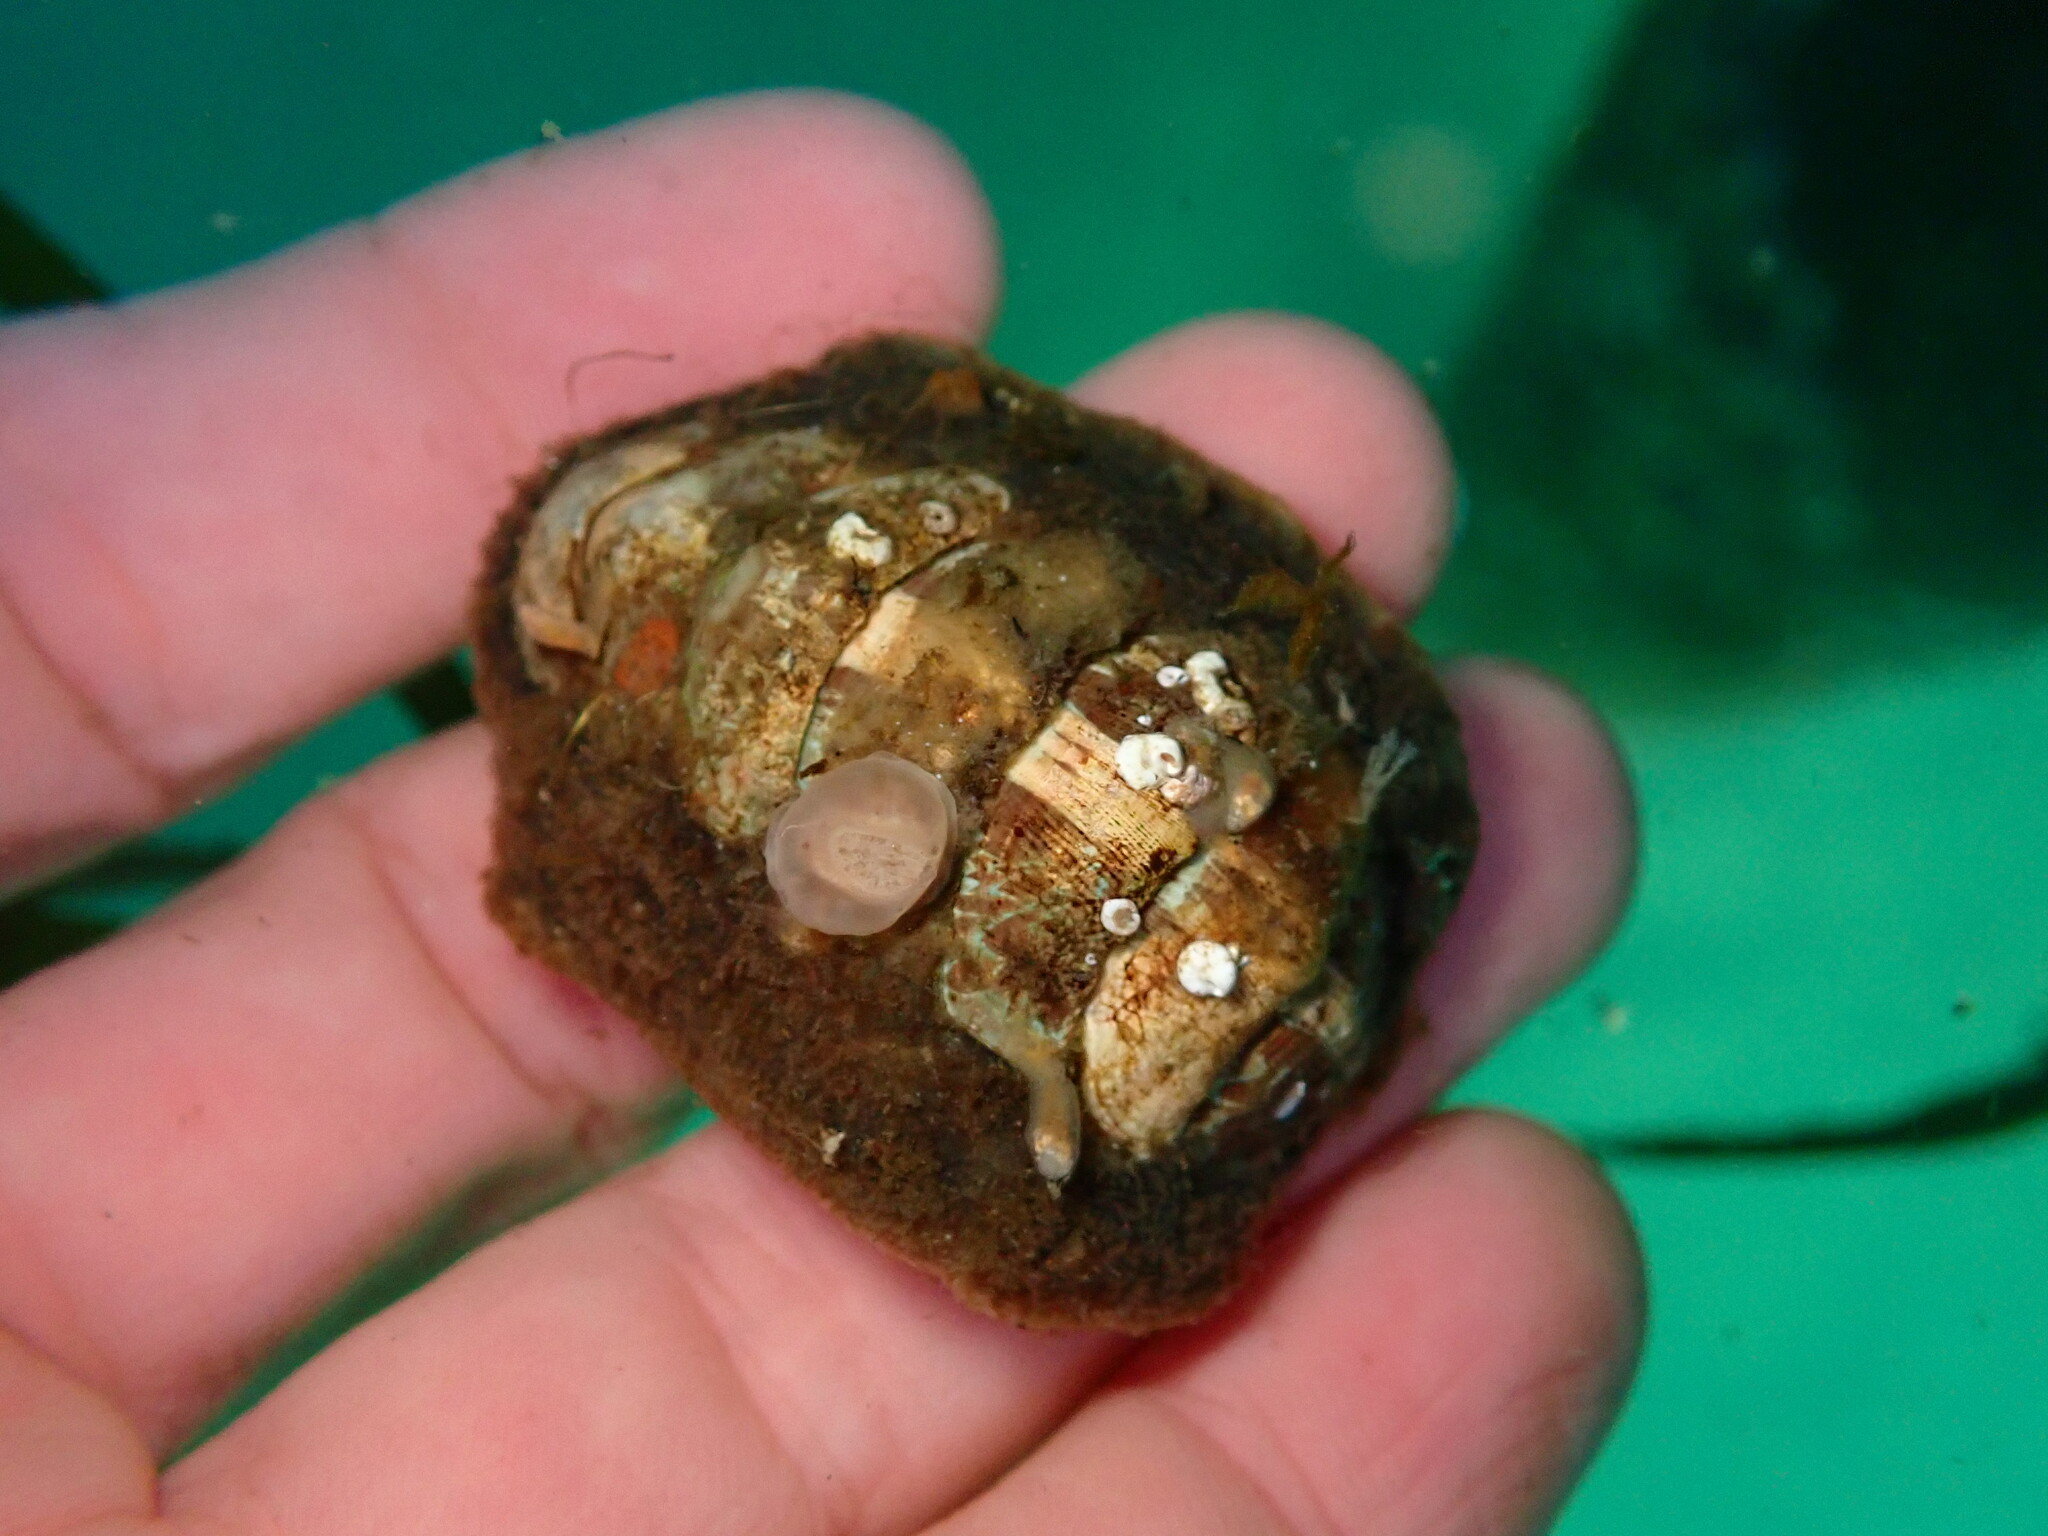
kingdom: Animalia
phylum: Mollusca
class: Polyplacophora
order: Chitonida
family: Mopaliidae
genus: Mopalia
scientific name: Mopalia ciliata
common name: Hairy chiton
